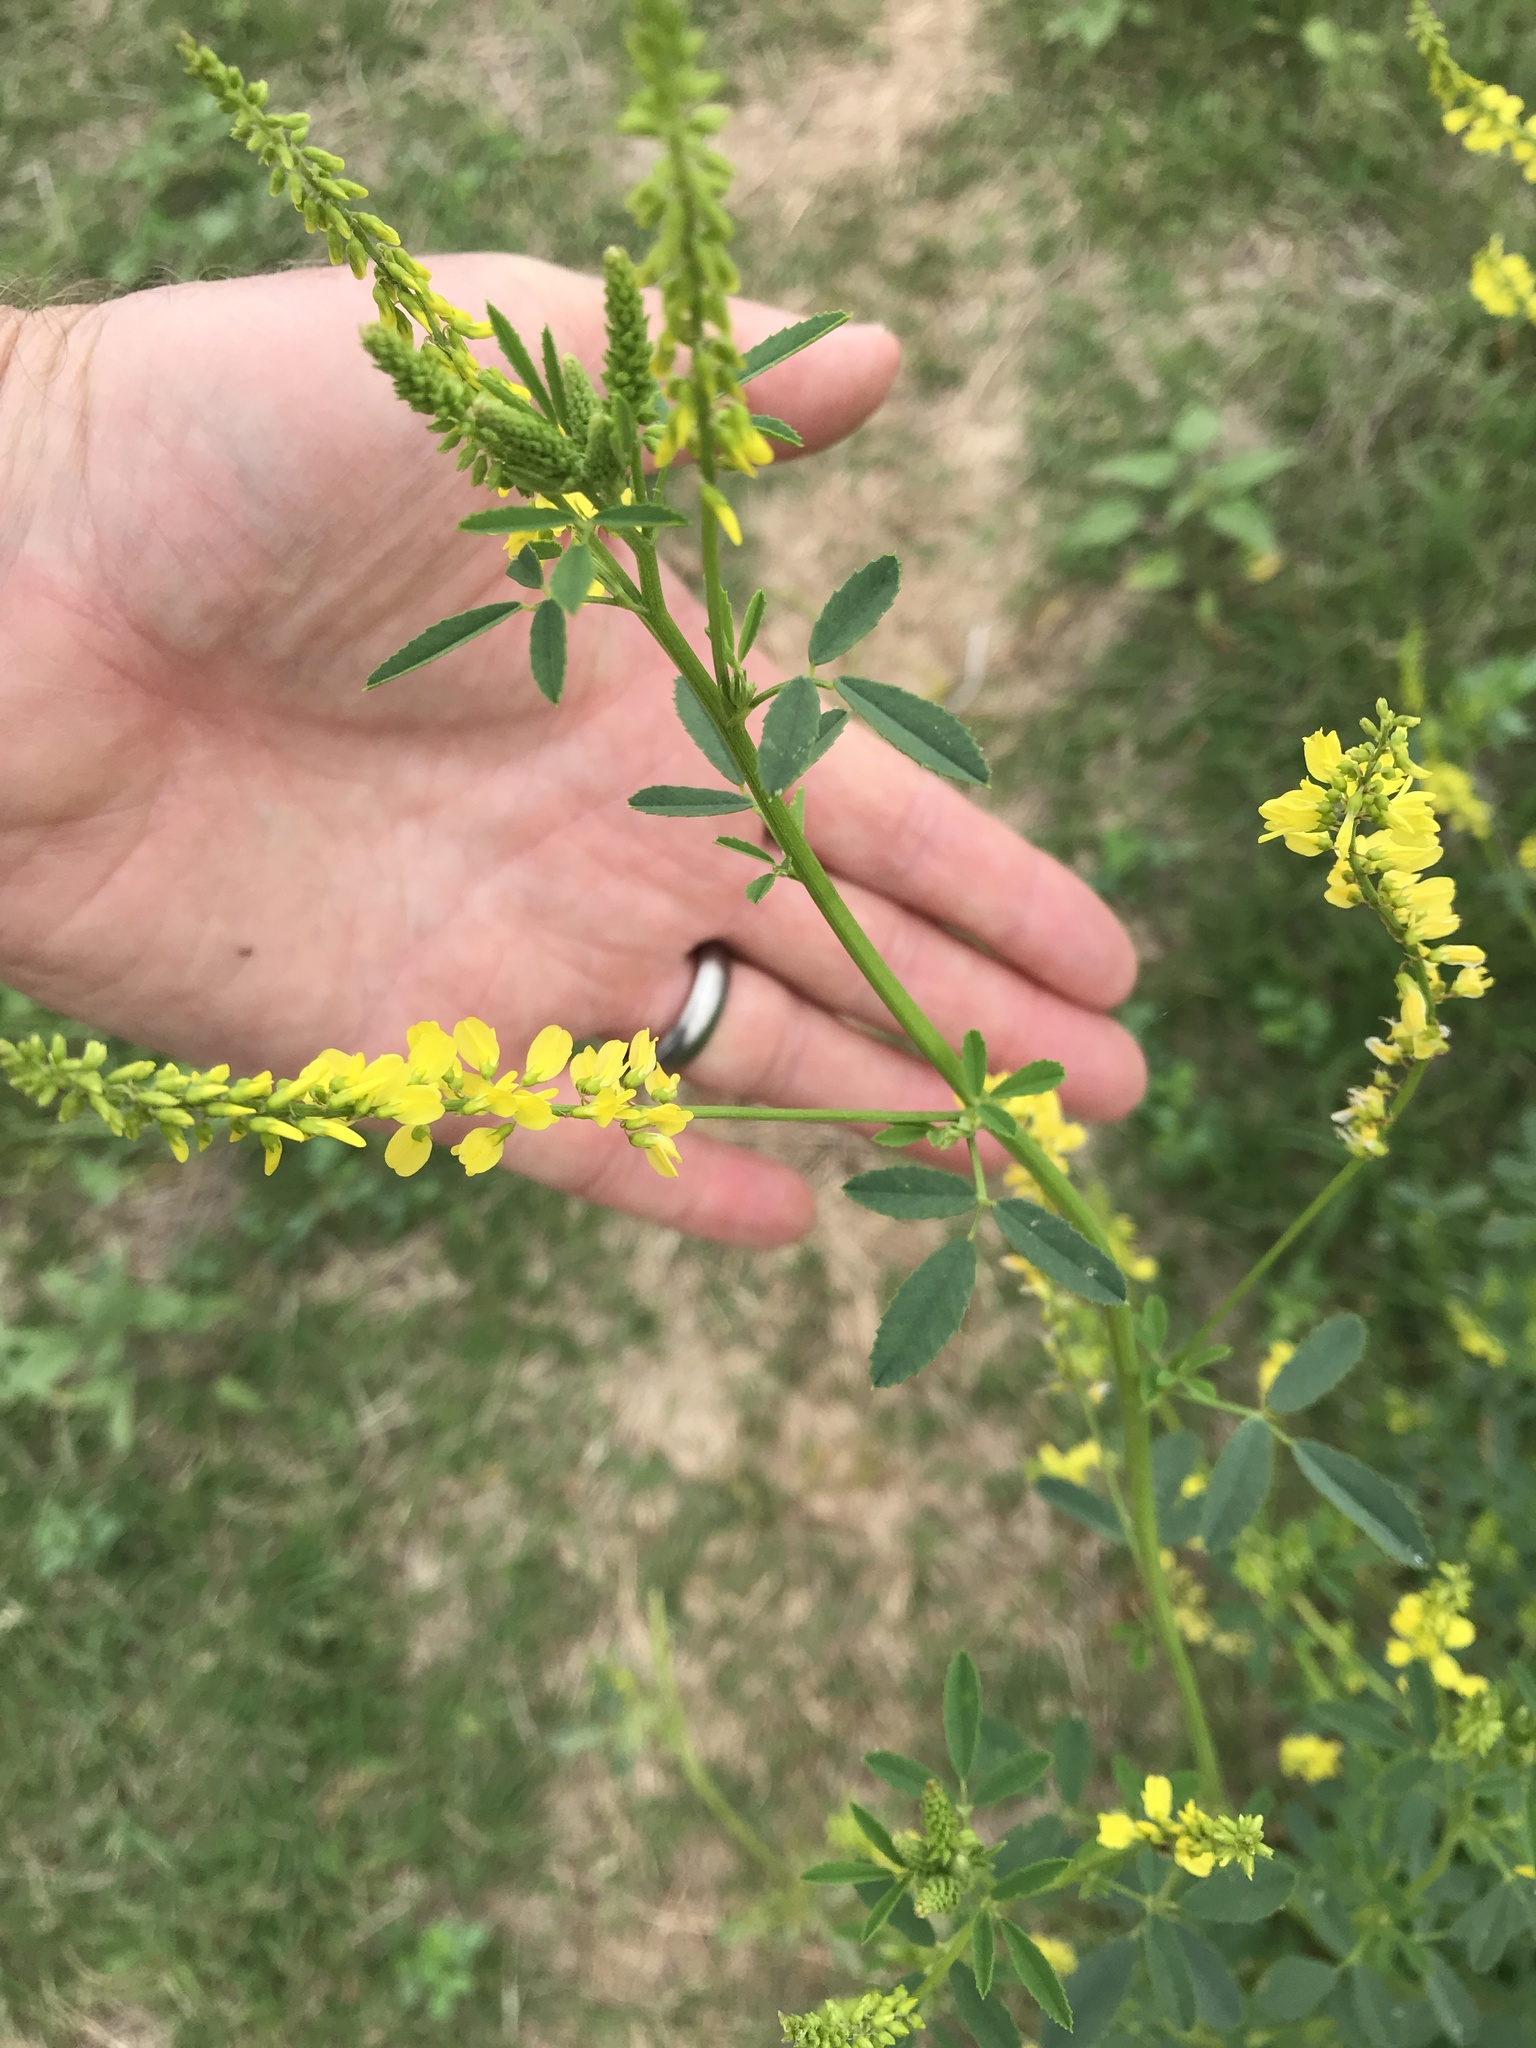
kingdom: Plantae
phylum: Tracheophyta
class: Magnoliopsida
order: Fabales
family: Fabaceae
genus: Melilotus
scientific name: Melilotus officinalis
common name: Sweetclover
